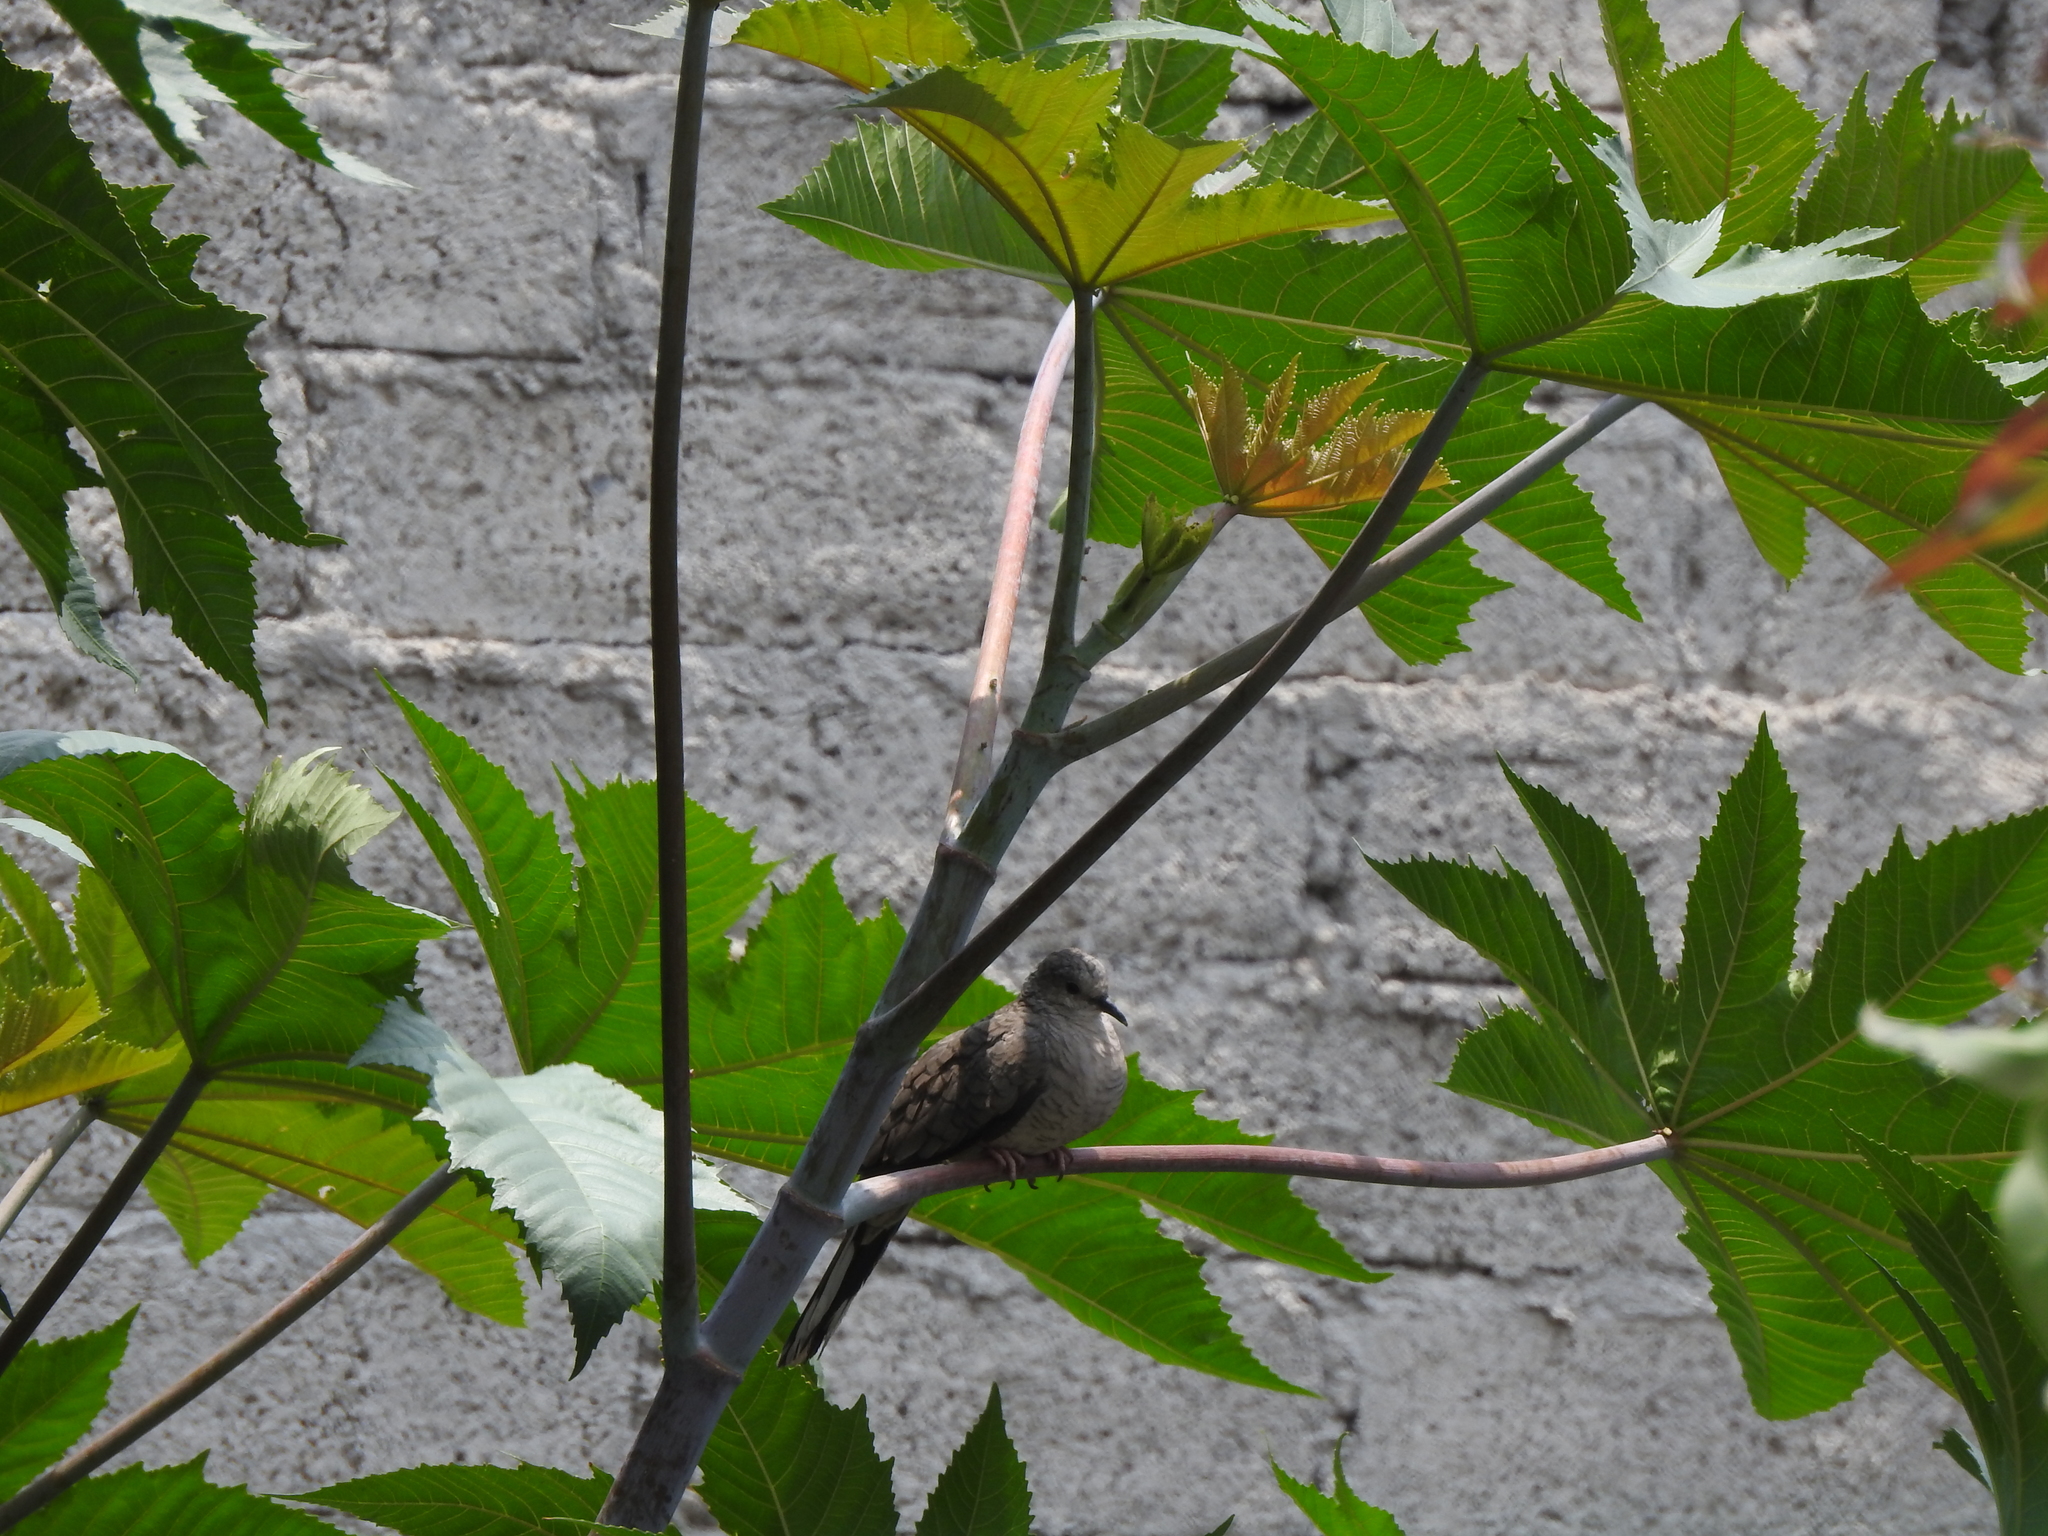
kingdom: Animalia
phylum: Chordata
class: Aves
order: Columbiformes
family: Columbidae
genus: Columbina
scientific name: Columbina inca
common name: Inca dove
